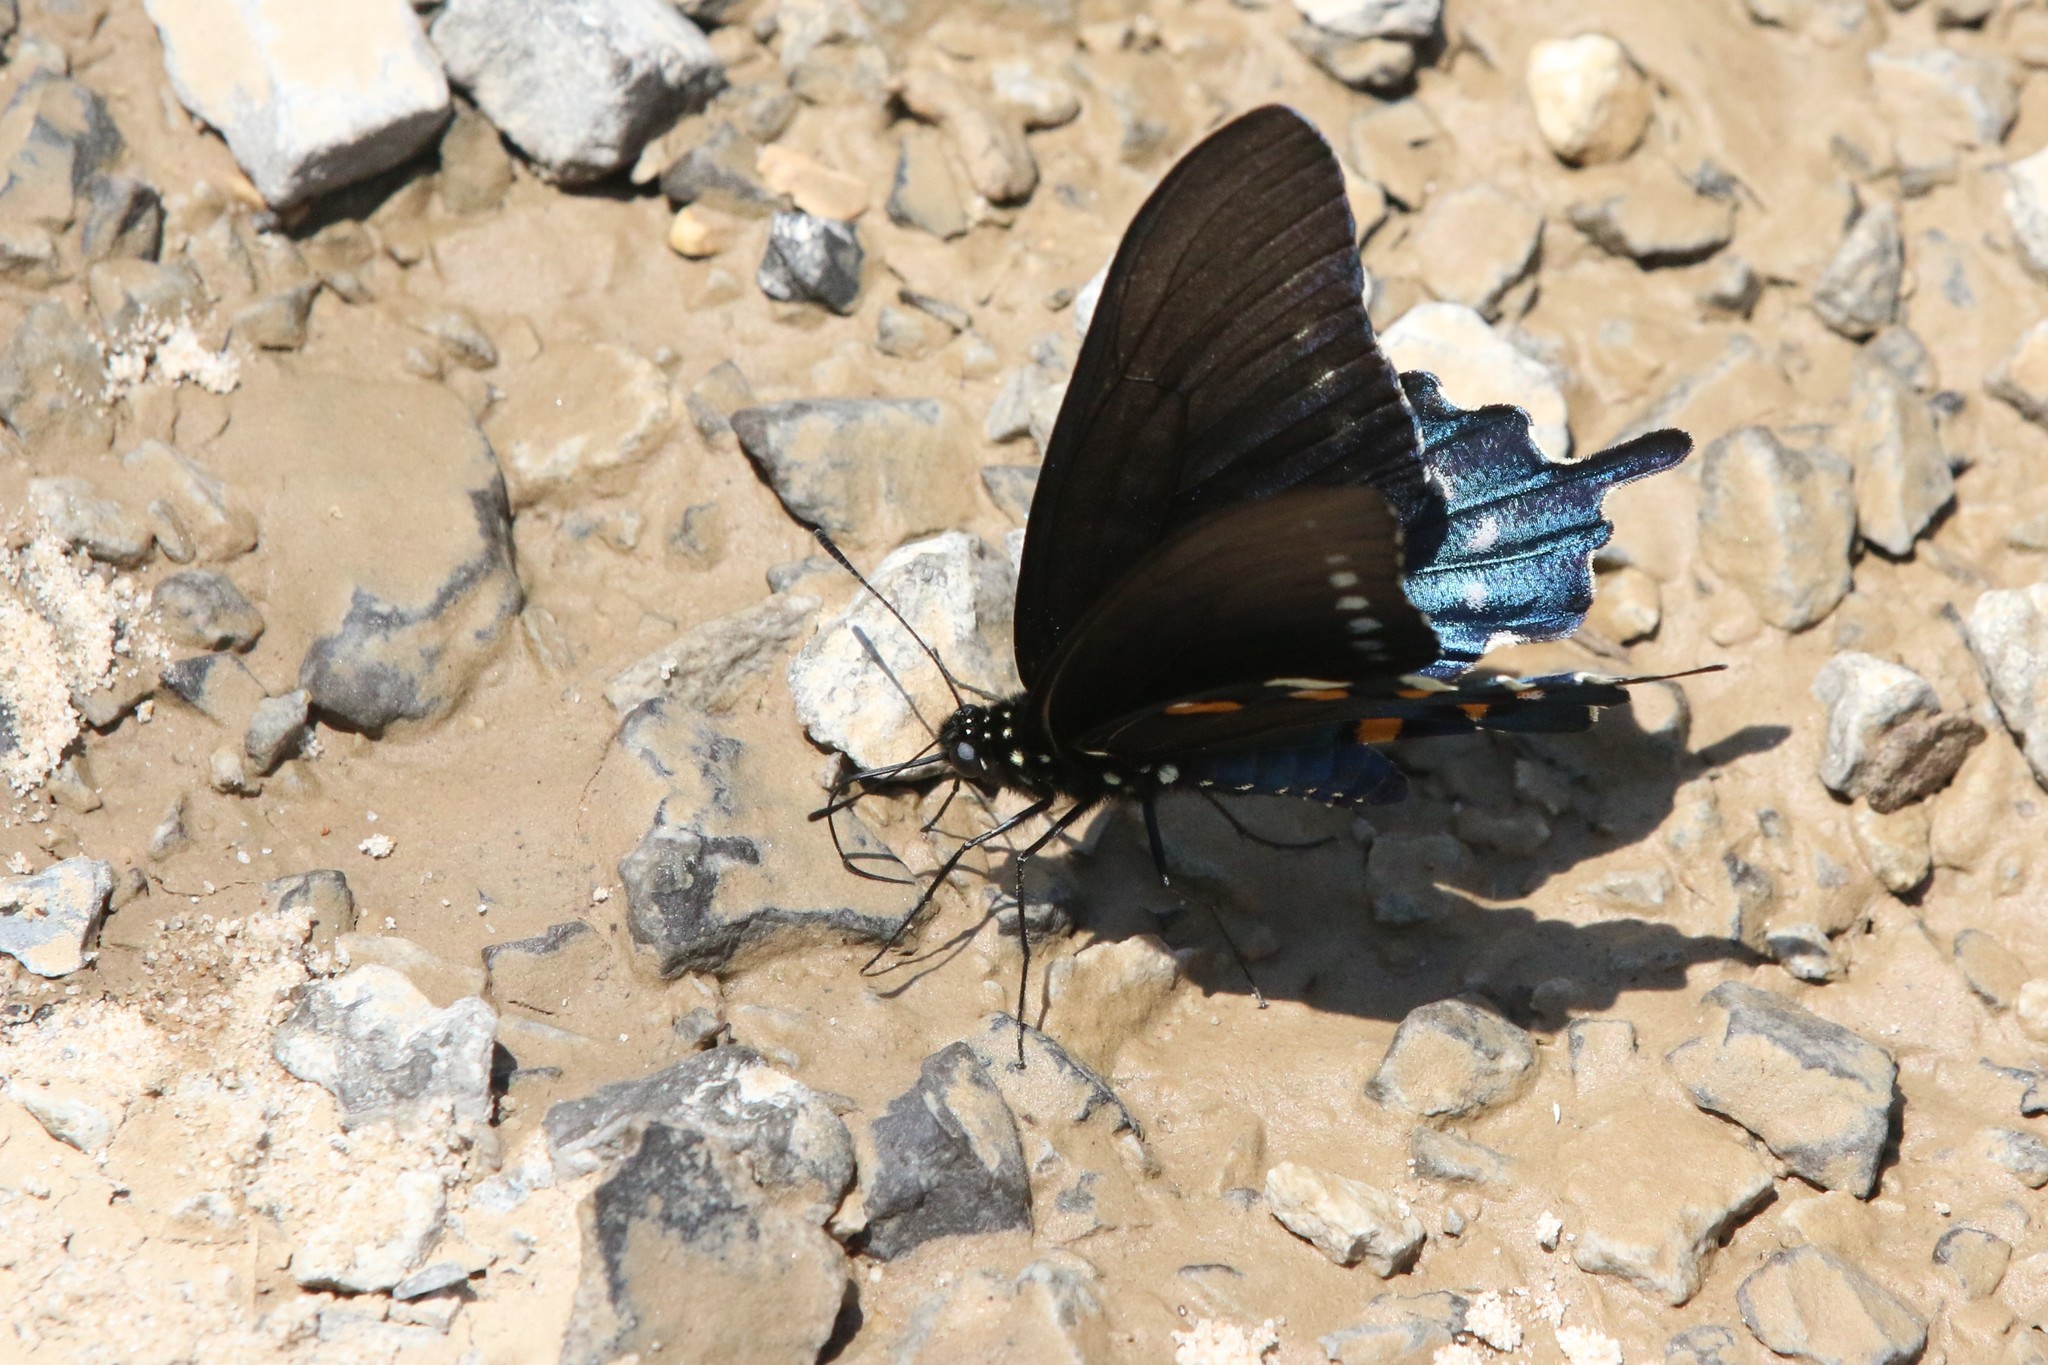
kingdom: Animalia
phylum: Arthropoda
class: Insecta
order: Lepidoptera
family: Papilionidae
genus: Battus
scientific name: Battus philenor
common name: Pipevine swallowtail
